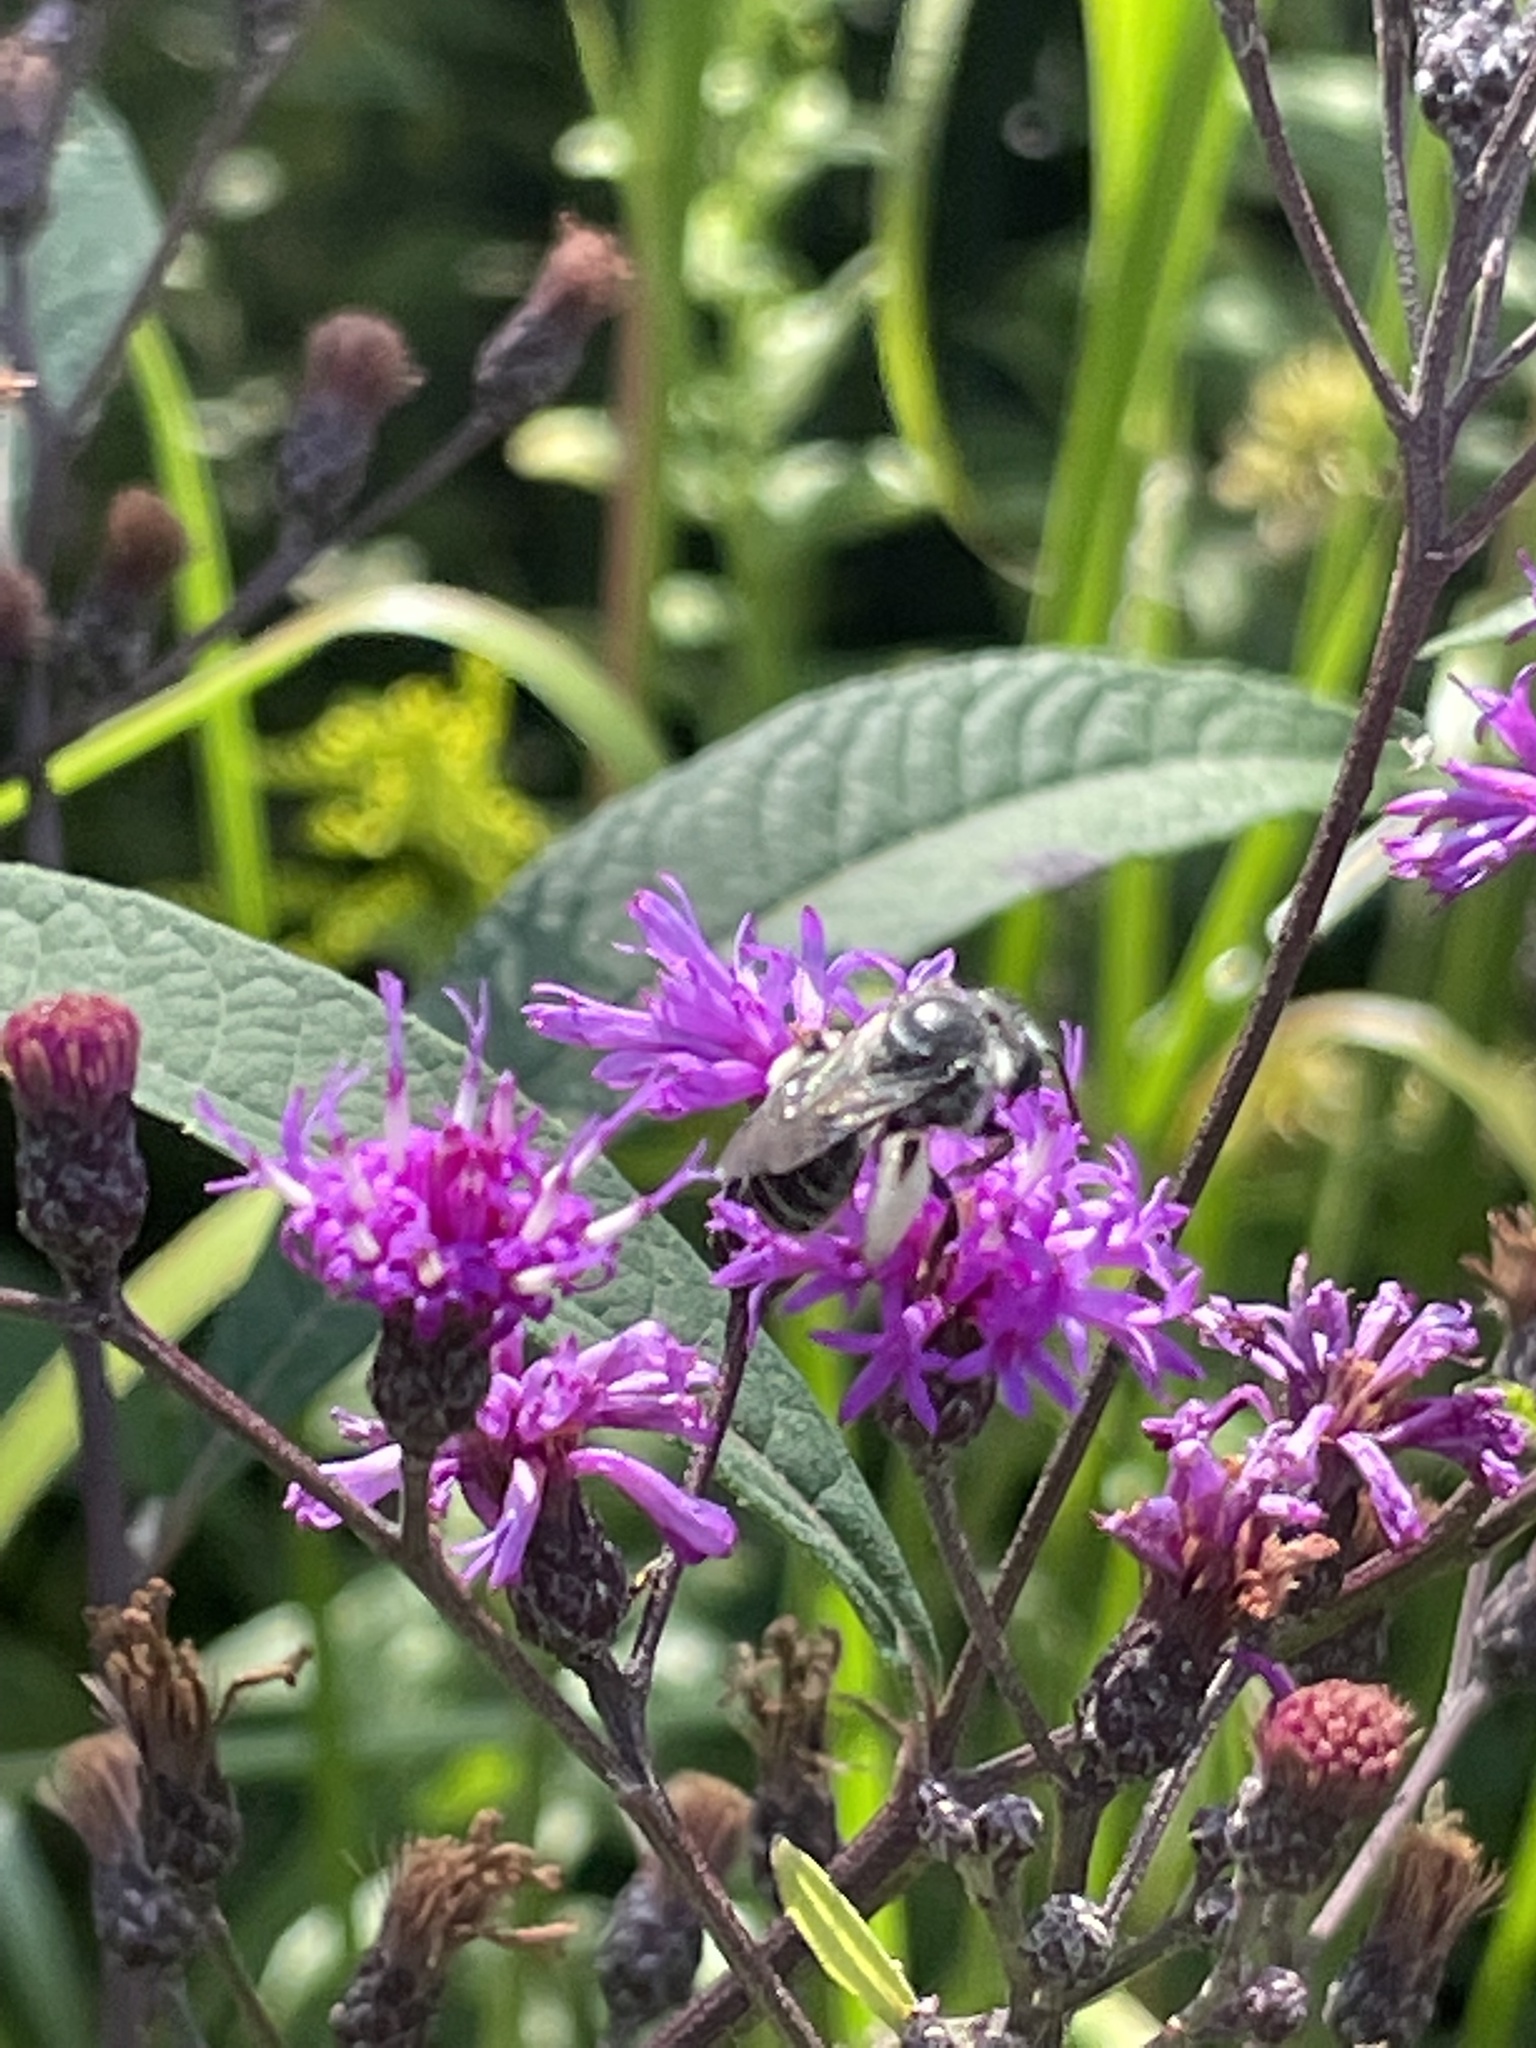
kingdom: Animalia
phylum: Arthropoda
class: Insecta
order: Hymenoptera
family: Apidae
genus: Melissodes
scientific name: Melissodes denticulatus
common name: Denticulate long-horned bee
